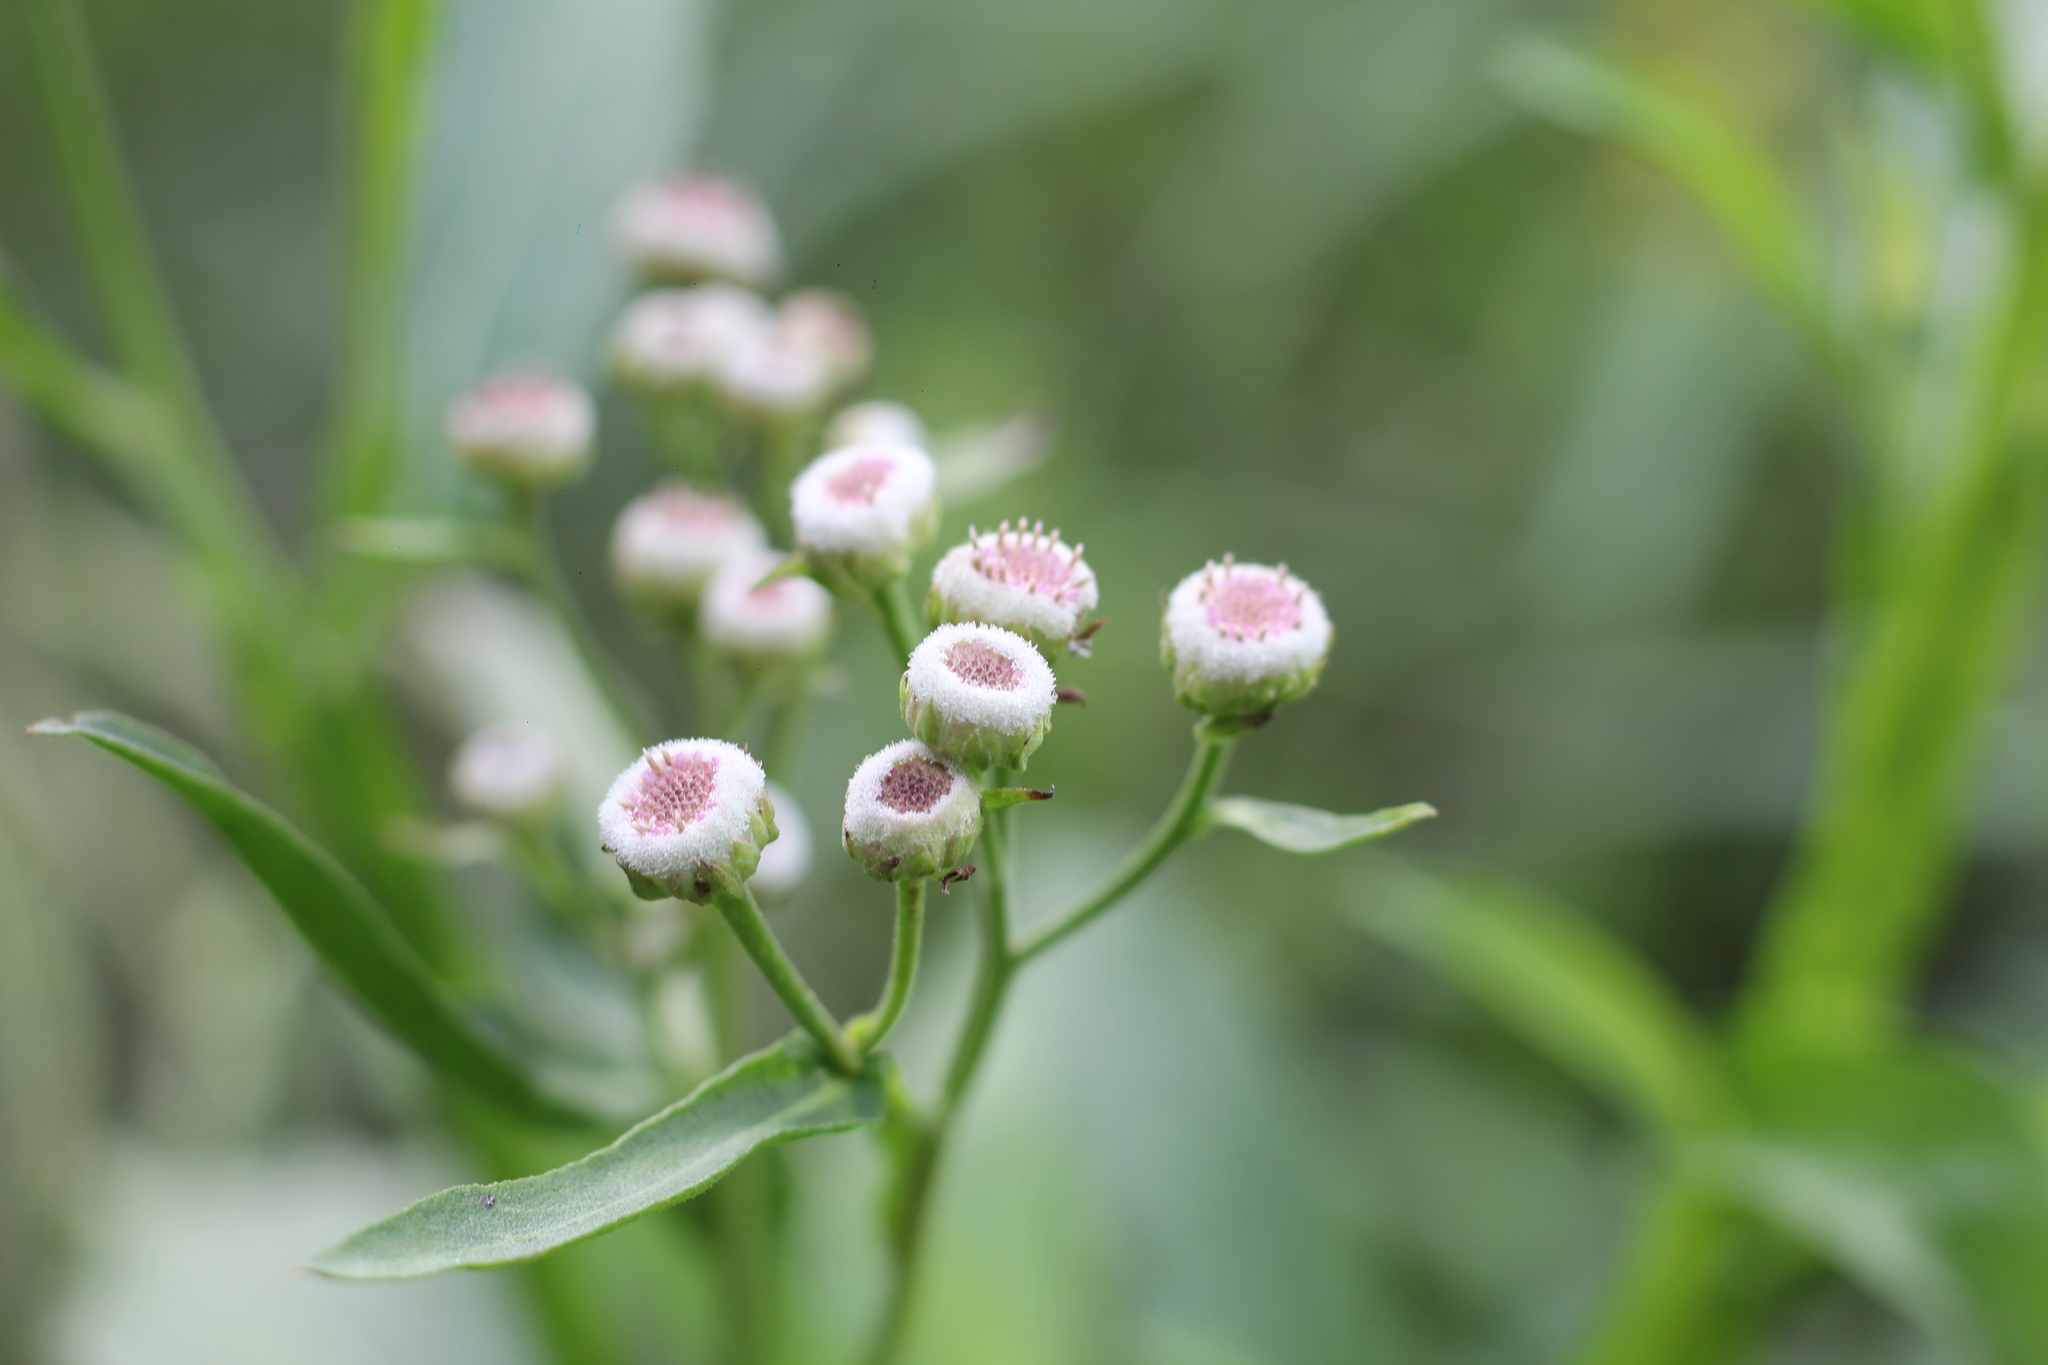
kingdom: Plantae
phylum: Tracheophyta
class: Magnoliopsida
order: Asterales
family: Asteraceae
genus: Pluchea
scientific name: Pluchea sagittalis
